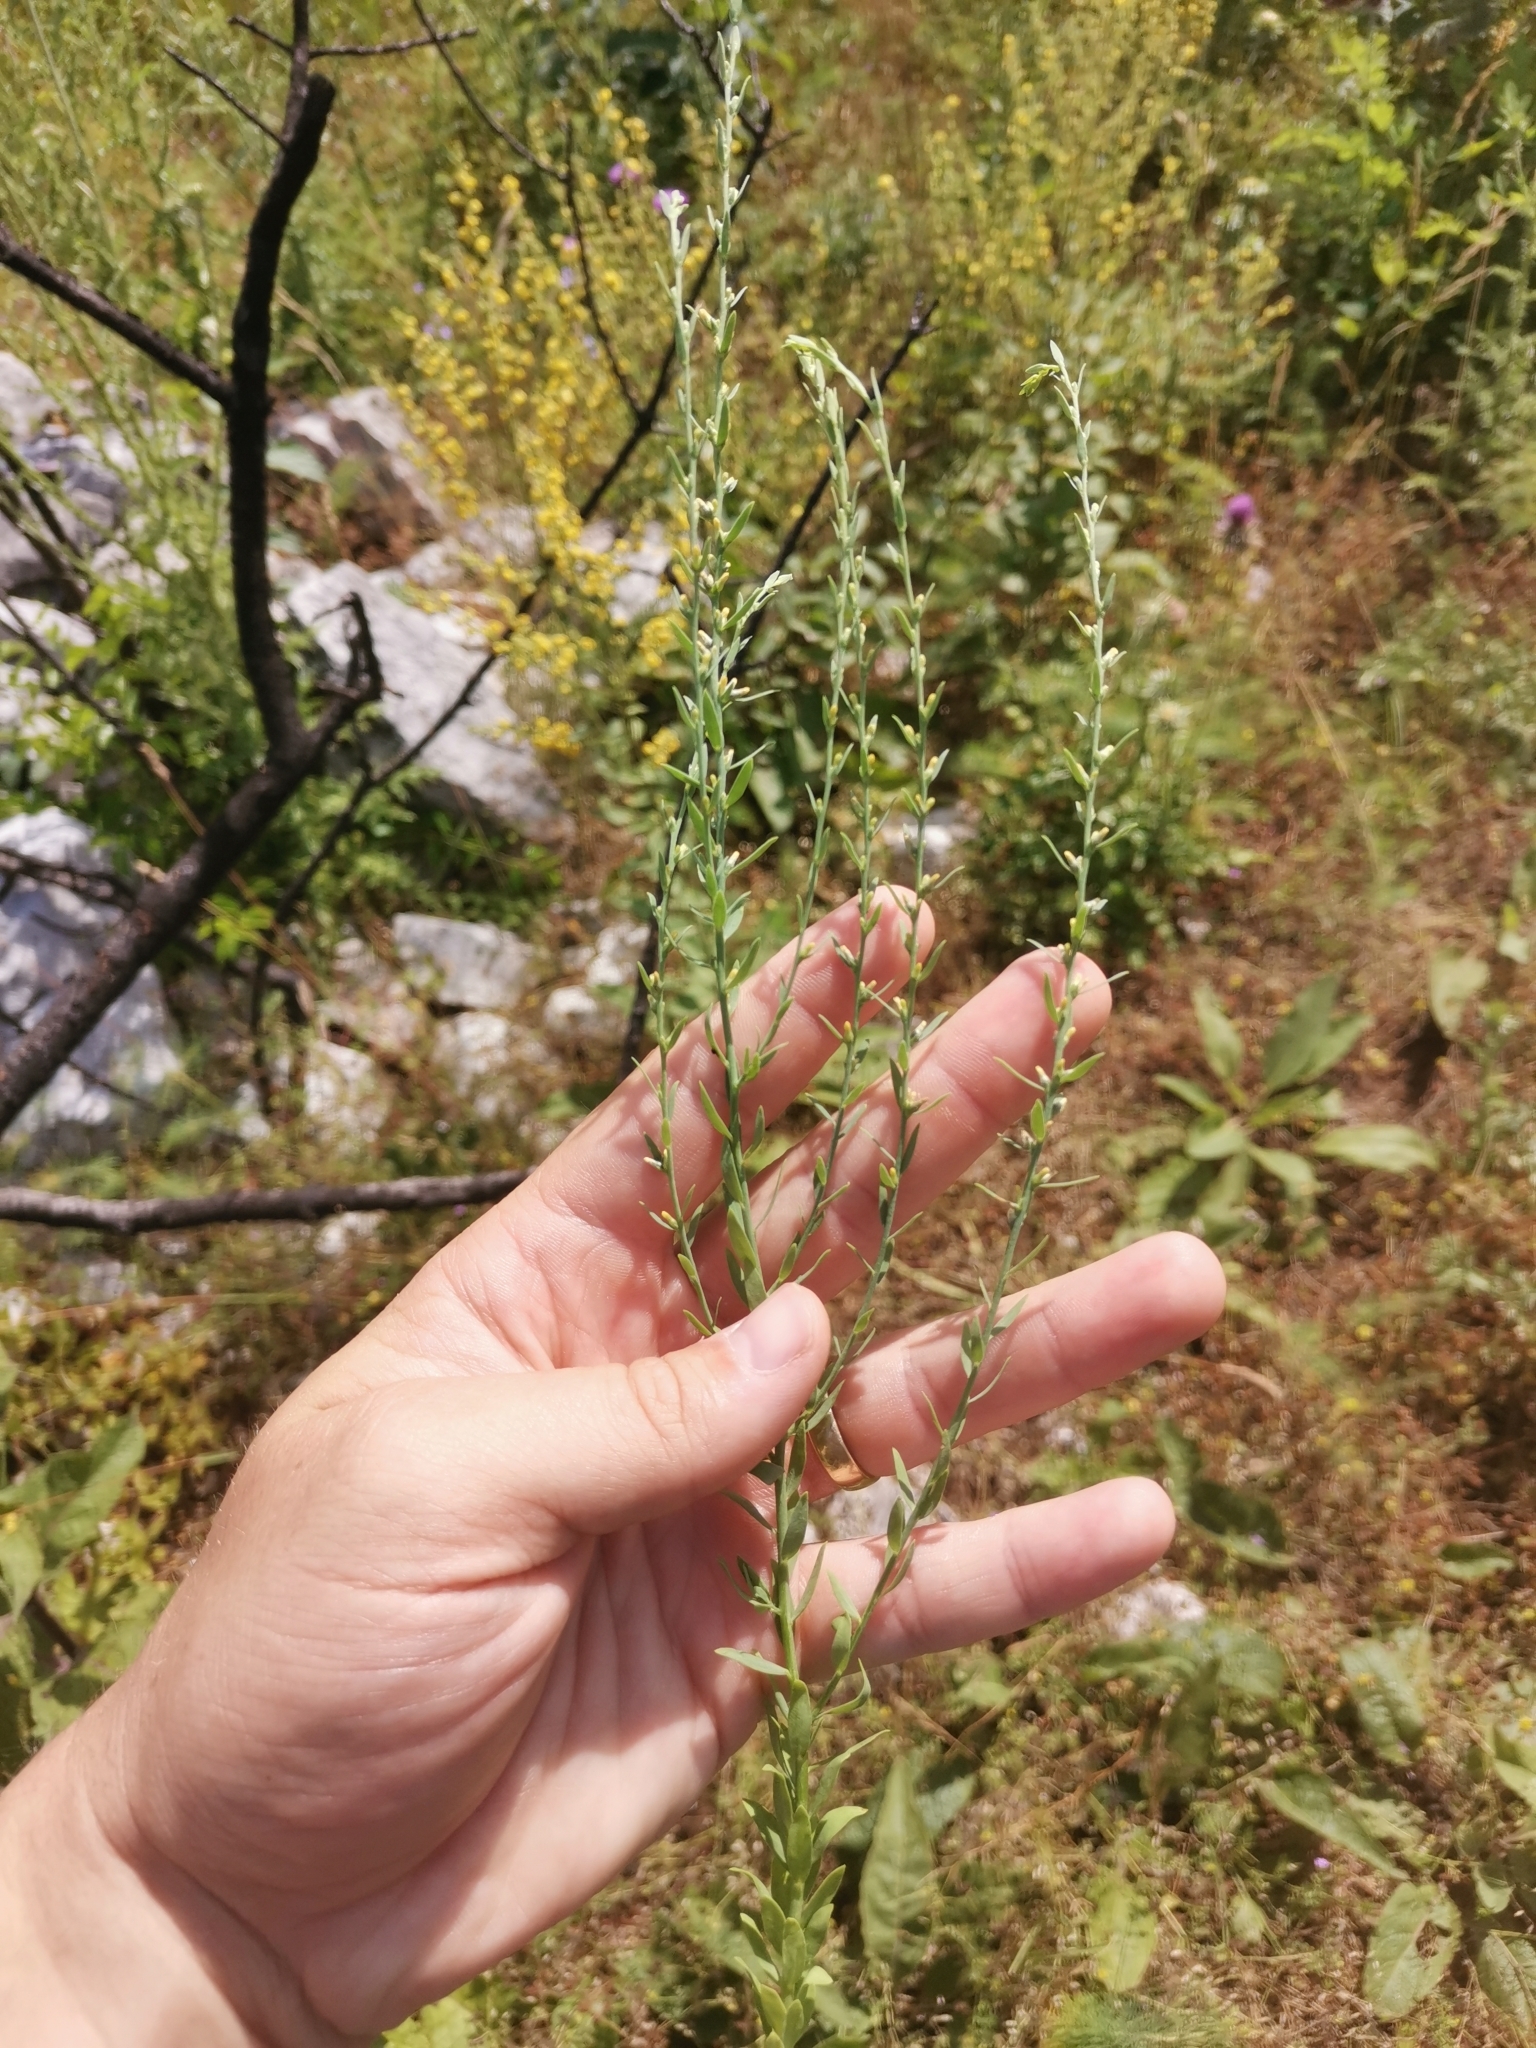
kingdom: Plantae
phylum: Tracheophyta
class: Magnoliopsida
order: Malvales
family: Thymelaeaceae
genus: Thymelaea
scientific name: Thymelaea passerina
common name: Annual thymelaea
